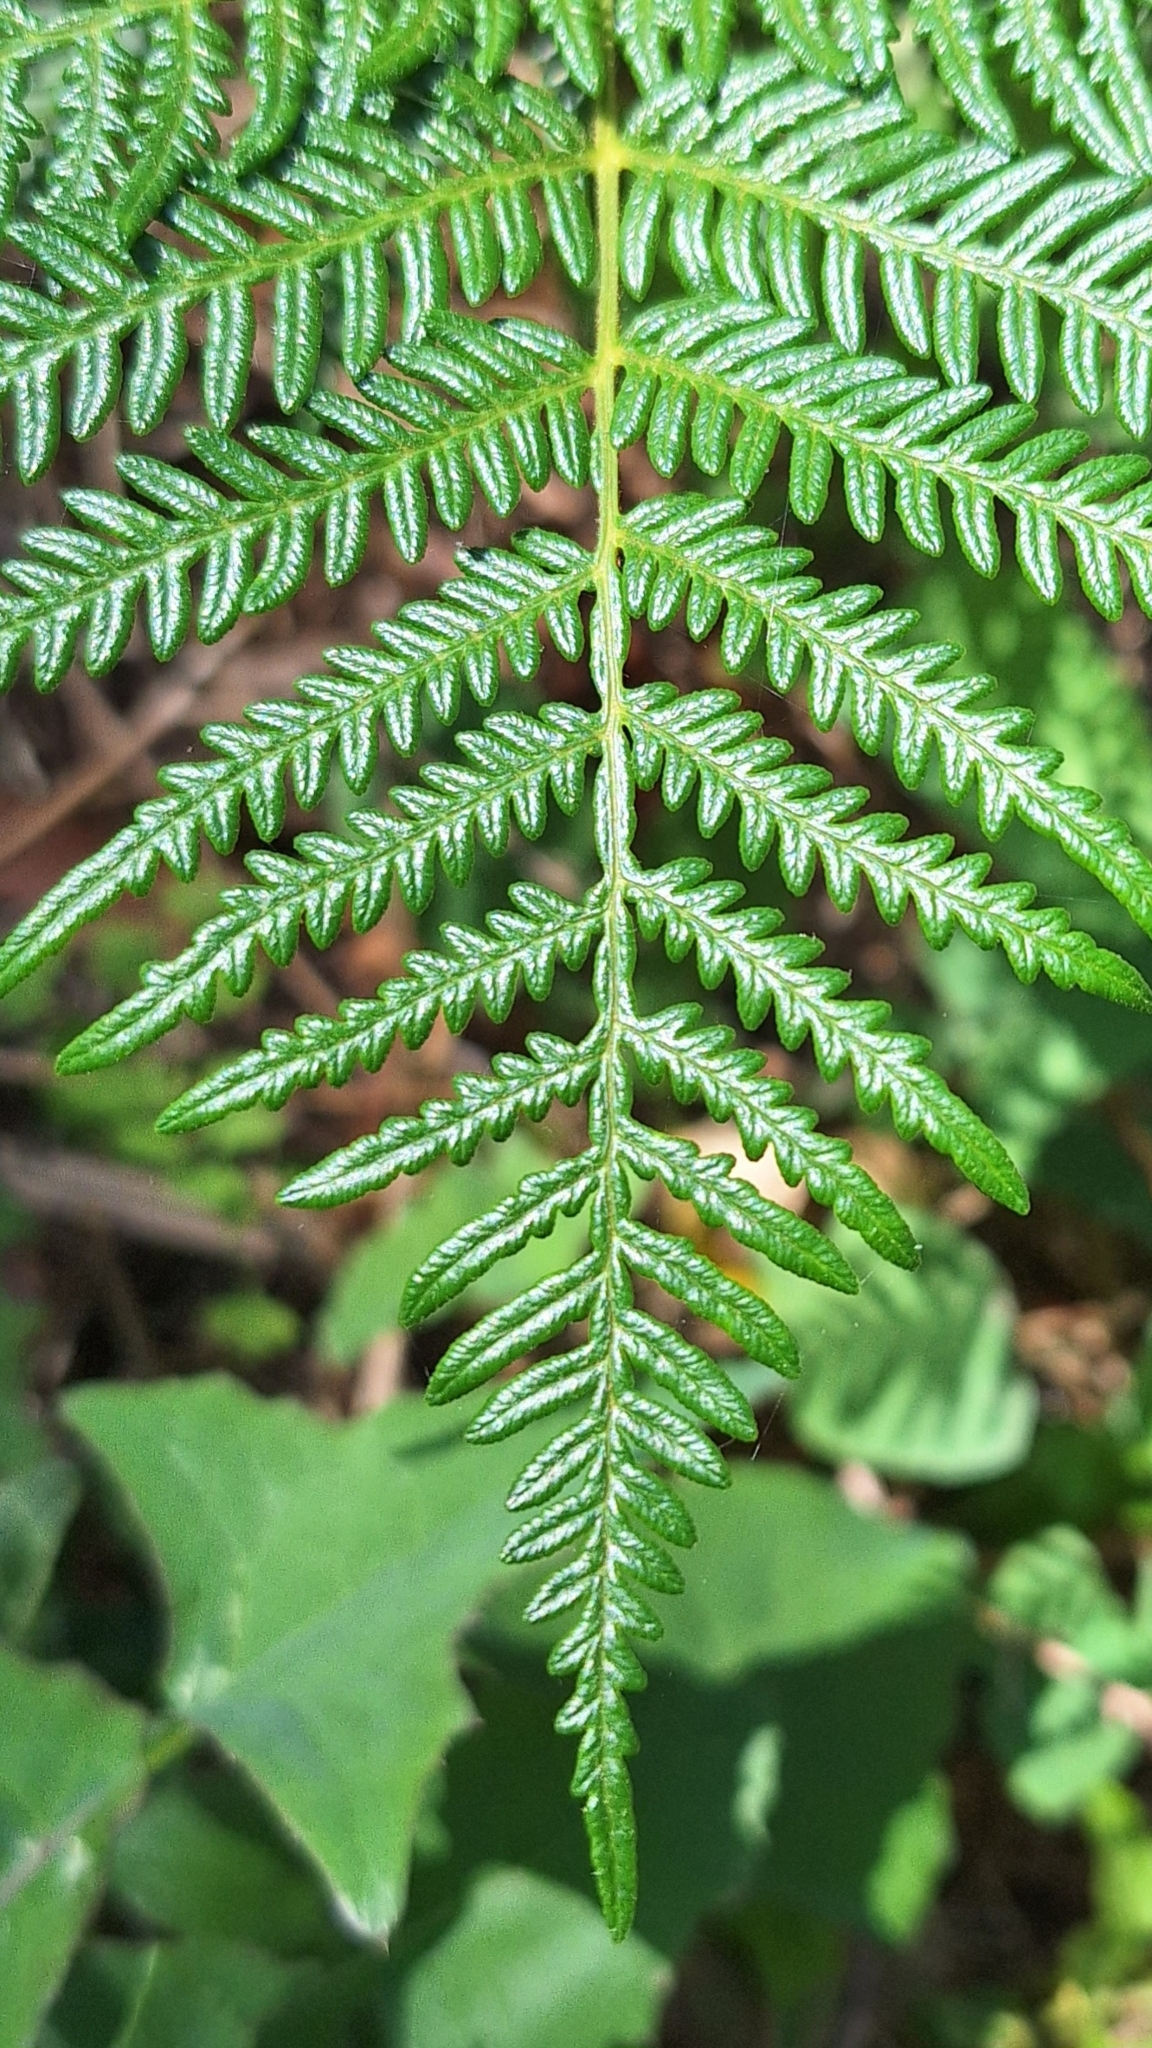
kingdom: Plantae
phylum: Tracheophyta
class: Polypodiopsida
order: Polypodiales
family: Dennstaedtiaceae
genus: Pteridium
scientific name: Pteridium esculentum
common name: Bracken fern
